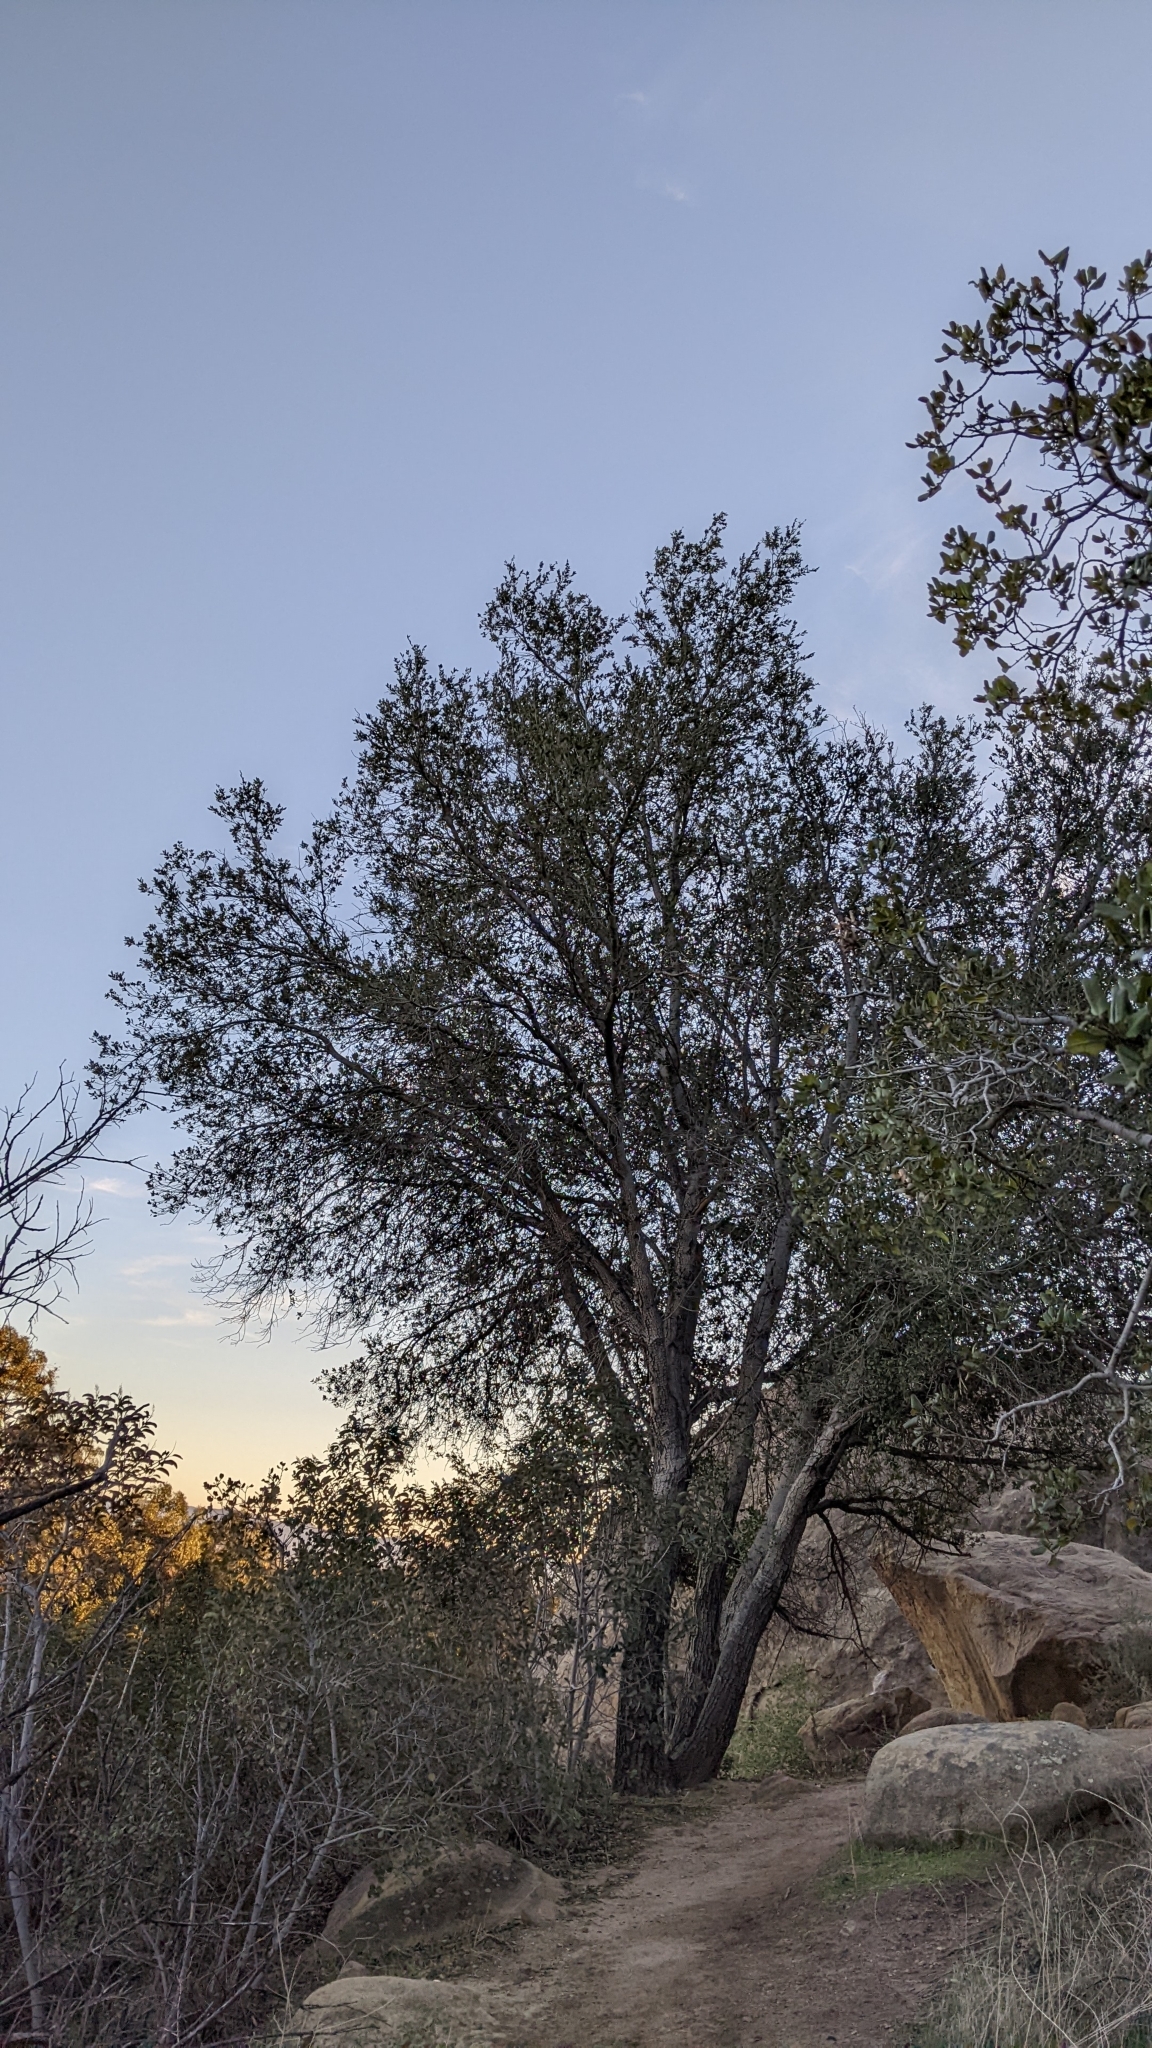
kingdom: Plantae
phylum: Tracheophyta
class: Magnoliopsida
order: Fagales
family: Fagaceae
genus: Quercus
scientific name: Quercus agrifolia
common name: California live oak
